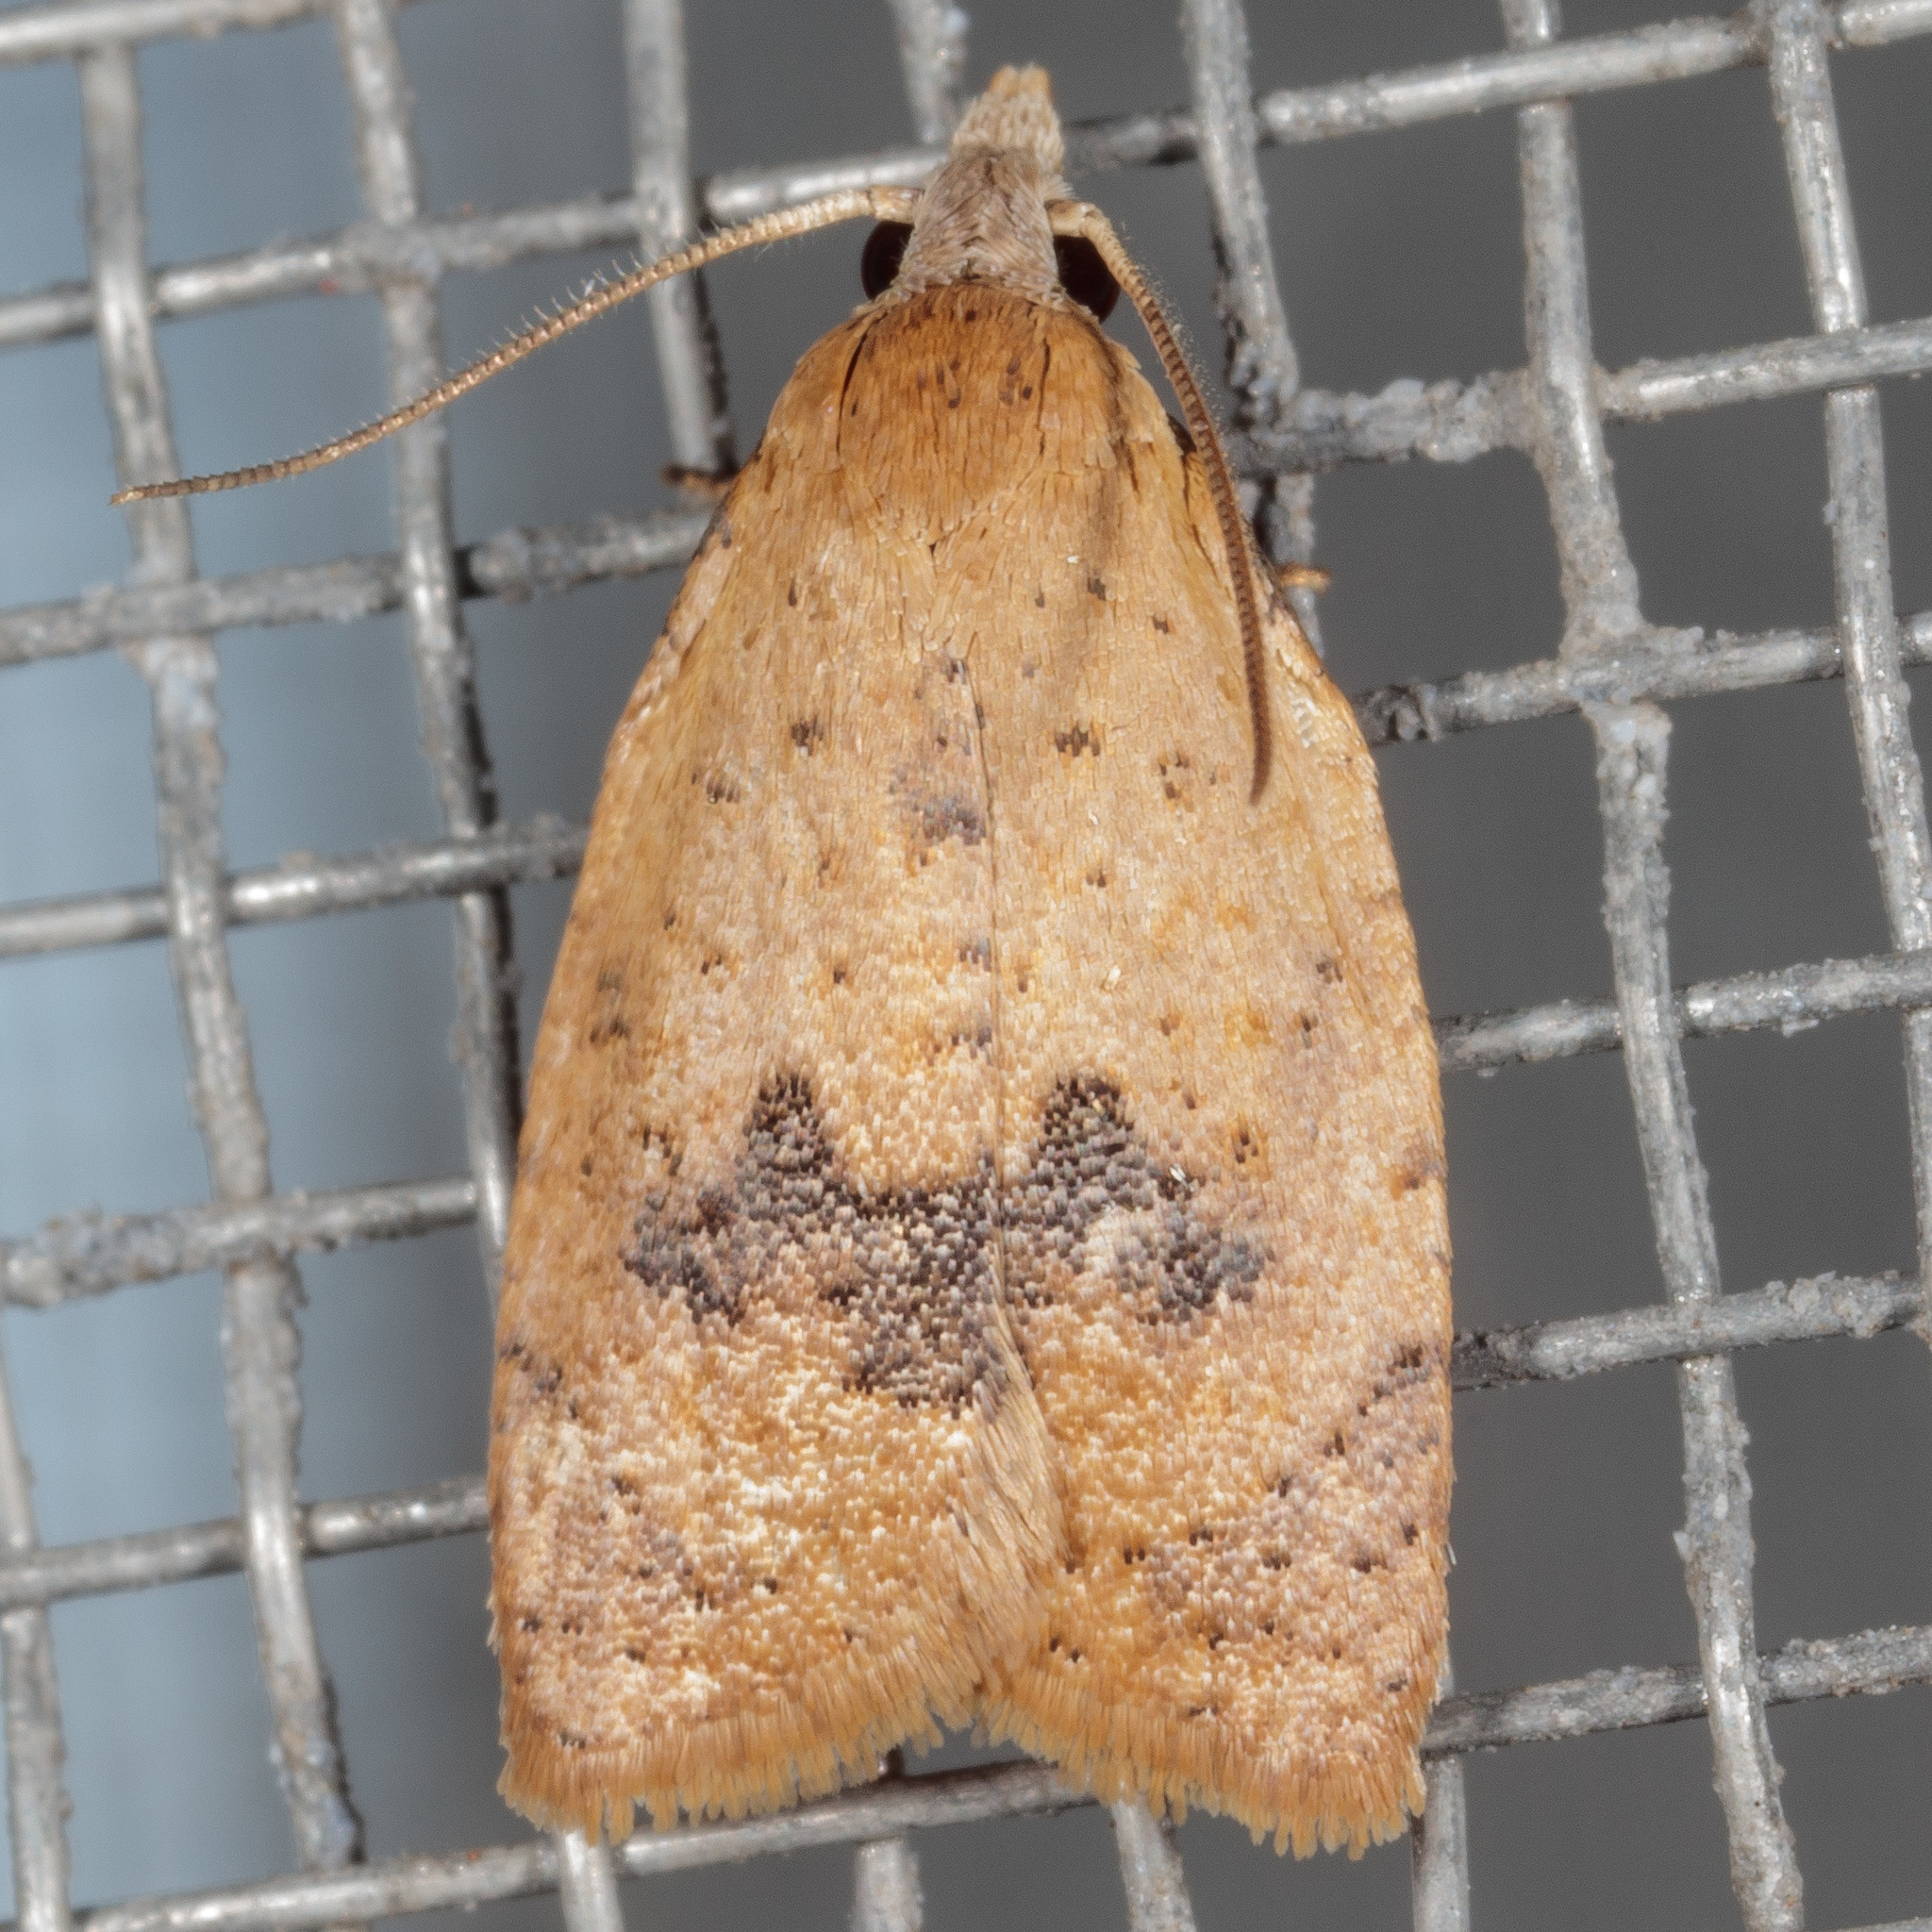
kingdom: Animalia
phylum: Arthropoda
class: Insecta
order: Lepidoptera
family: Tortricidae
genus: Sparganothoides
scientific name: Sparganothoides lentiginosana
